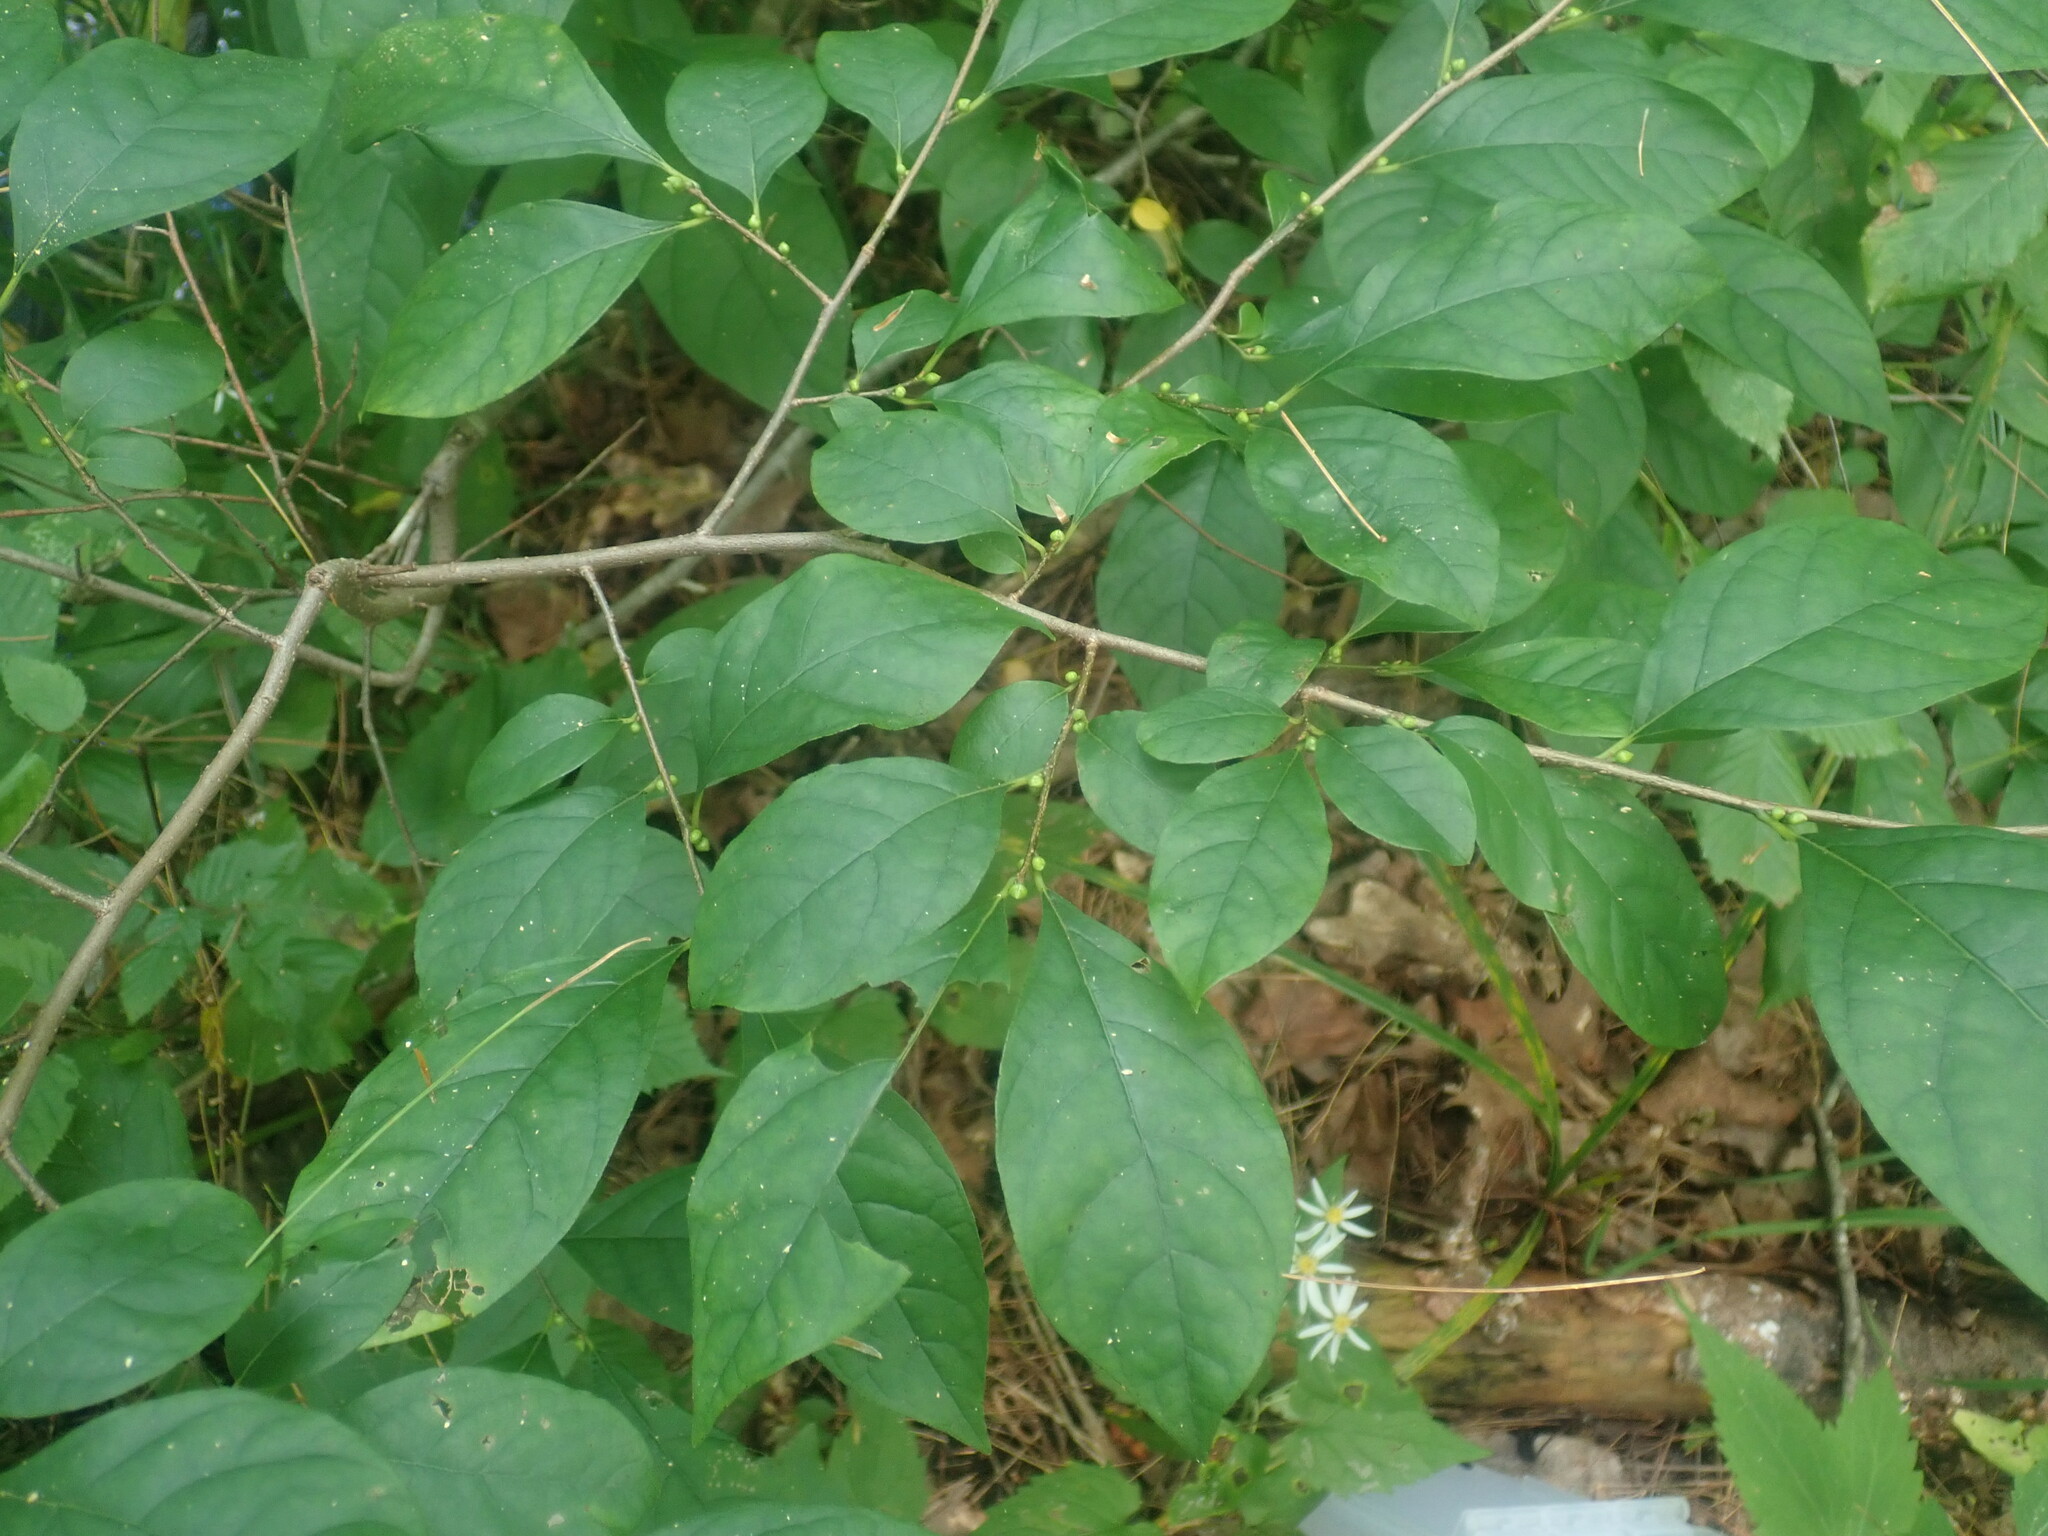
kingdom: Plantae
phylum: Tracheophyta
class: Magnoliopsida
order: Laurales
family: Lauraceae
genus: Lindera
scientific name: Lindera benzoin
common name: Spicebush
